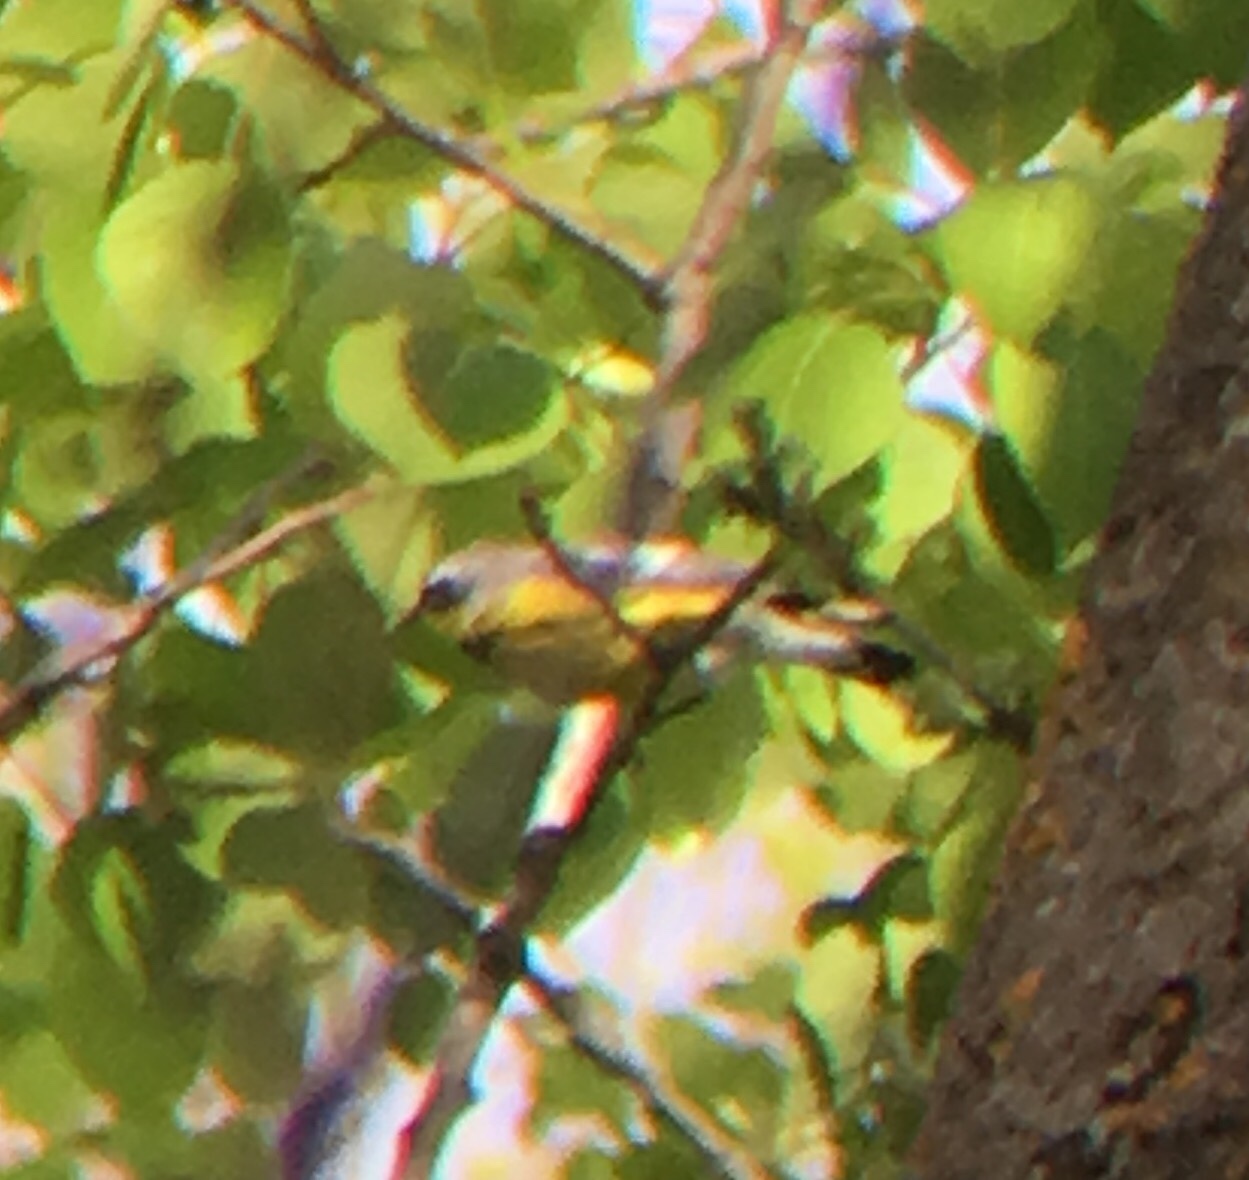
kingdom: Animalia
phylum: Chordata
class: Aves
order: Passeriformes
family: Parulidae
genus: Setophaga
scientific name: Setophaga magnolia
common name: Magnolia warbler
